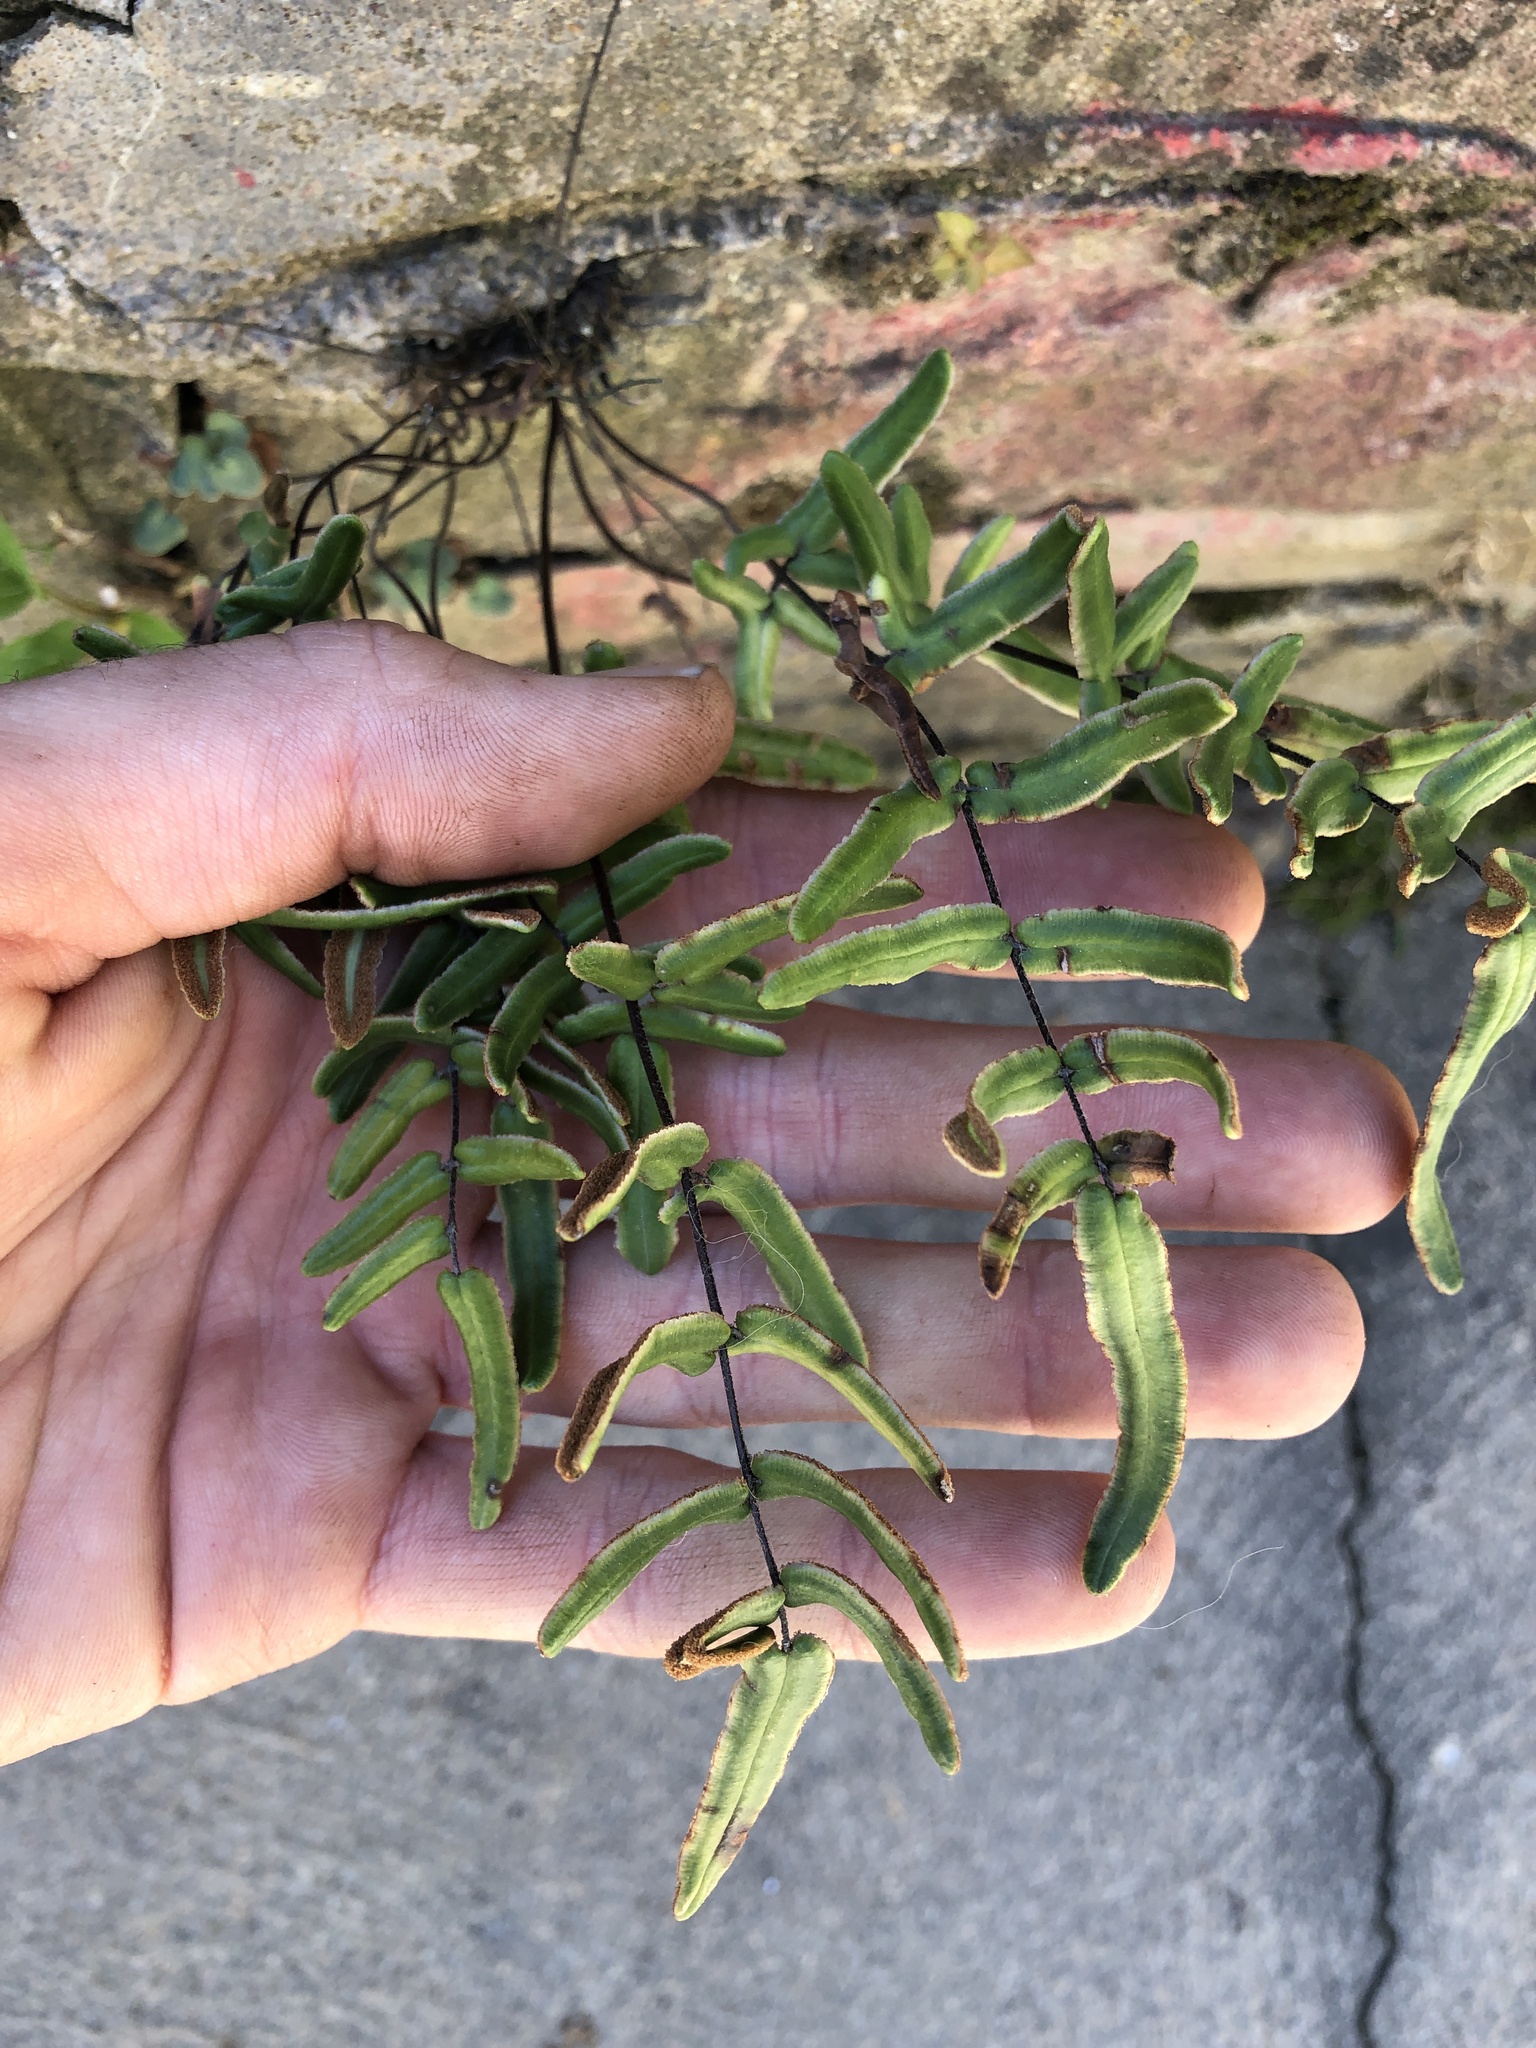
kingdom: Plantae
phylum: Tracheophyta
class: Polypodiopsida
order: Polypodiales
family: Pteridaceae
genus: Pellaea
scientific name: Pellaea atropurpurea
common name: Hairy cliffbrake
